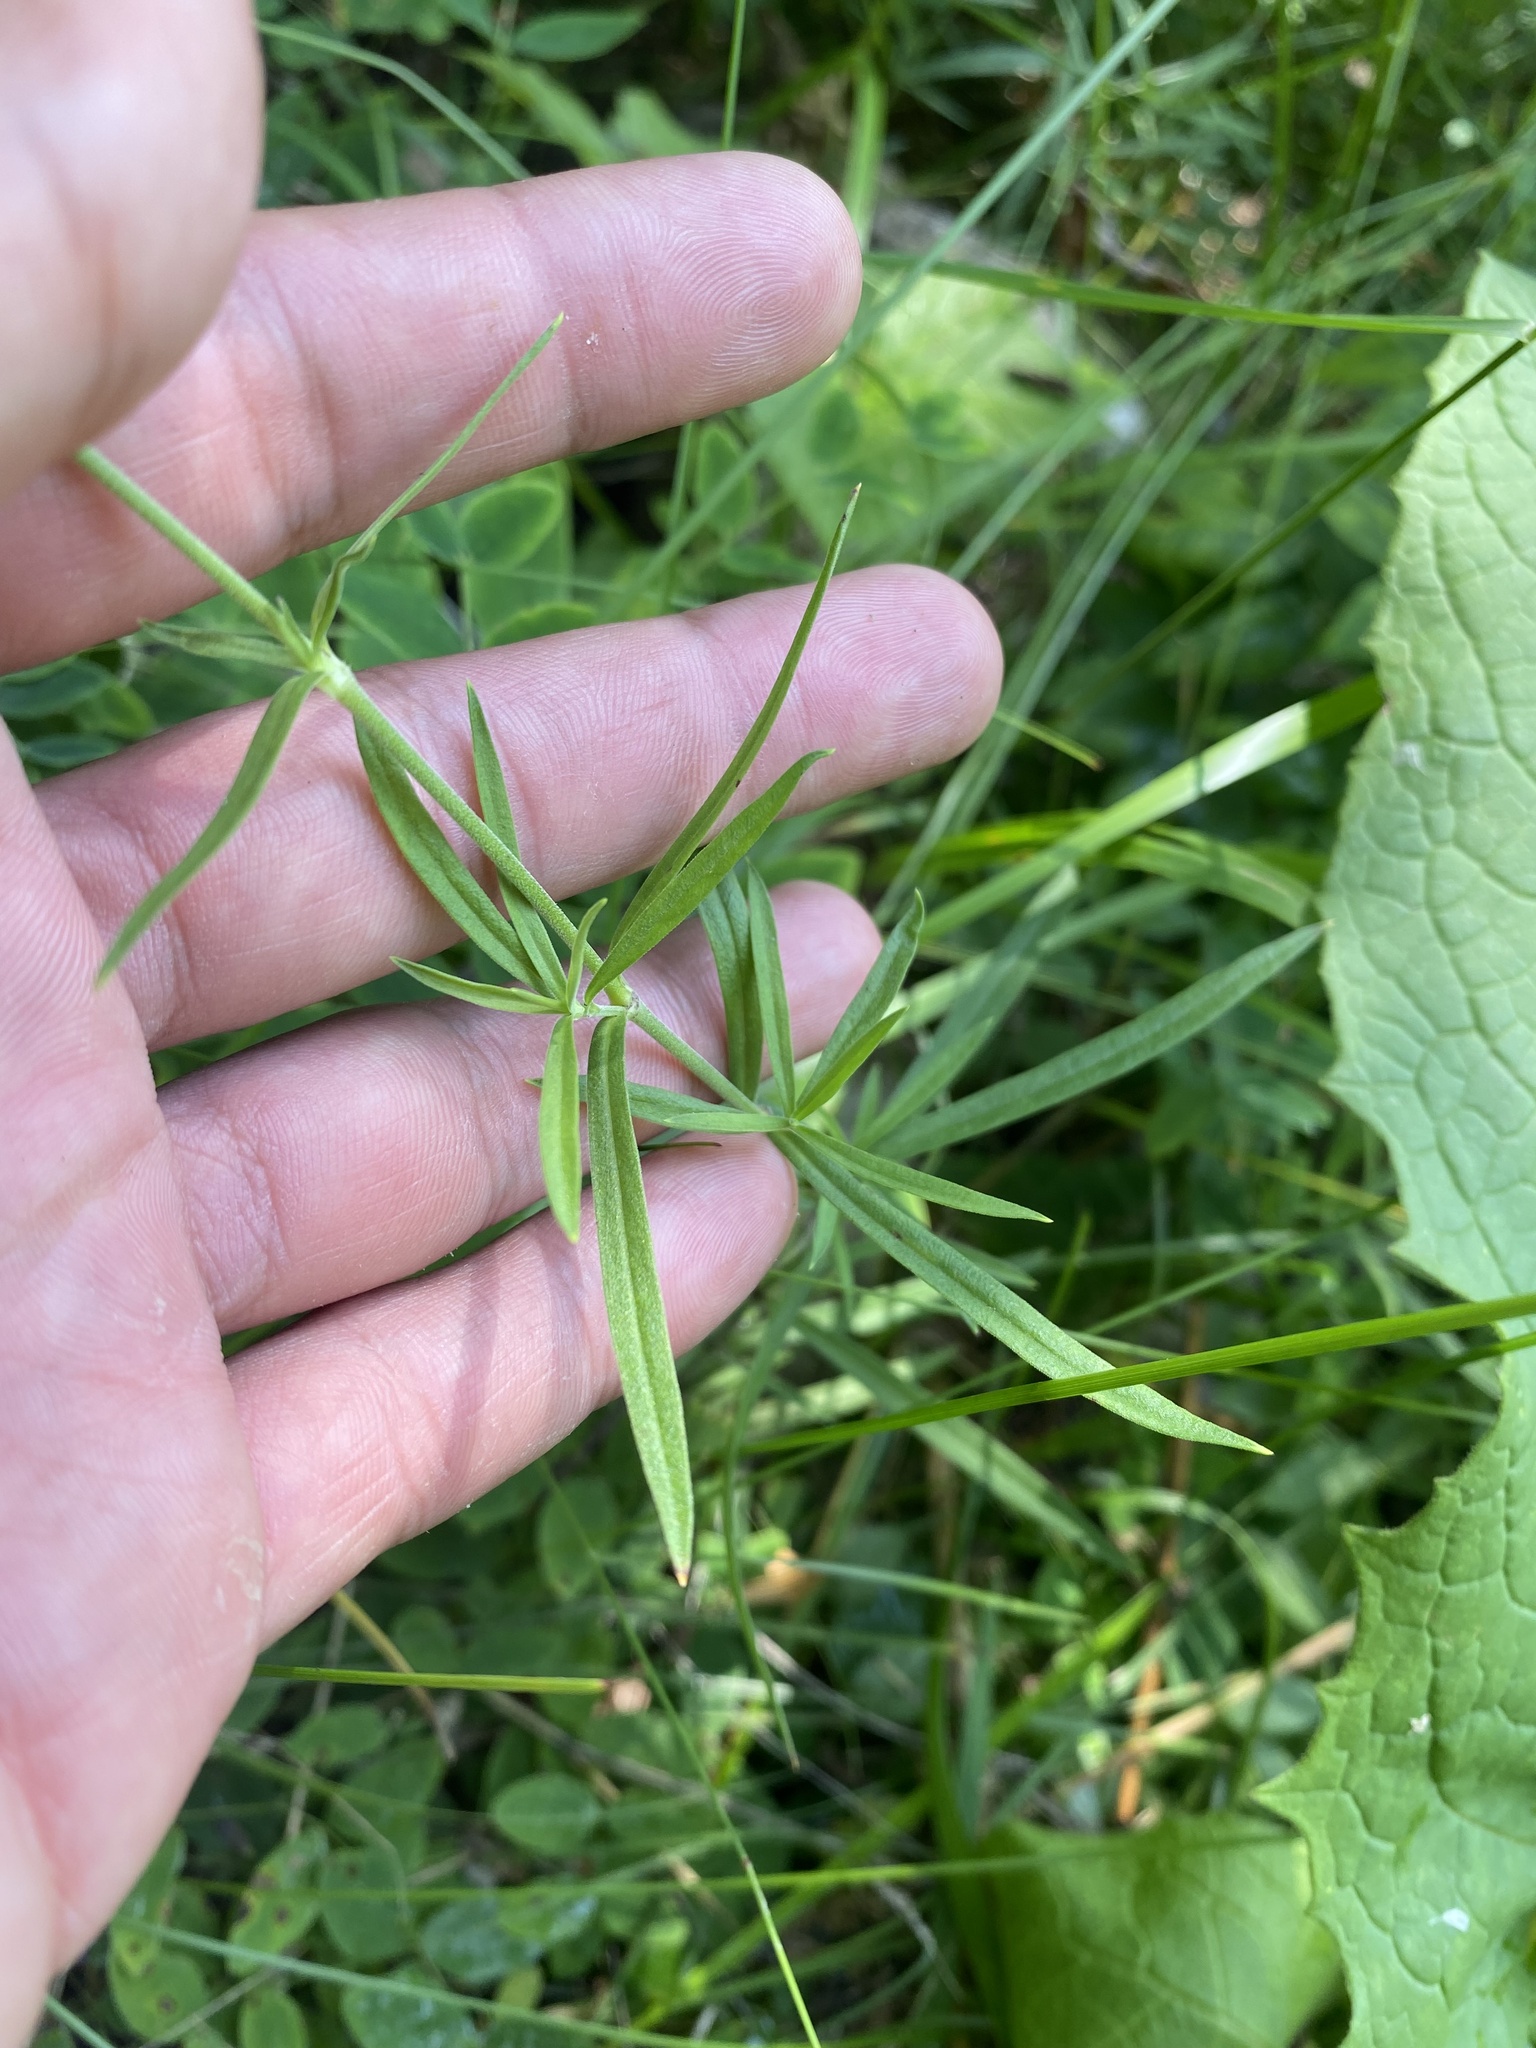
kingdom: Plantae
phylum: Tracheophyta
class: Magnoliopsida
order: Caryophyllales
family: Caryophyllaceae
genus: Silene
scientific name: Silene amoena
